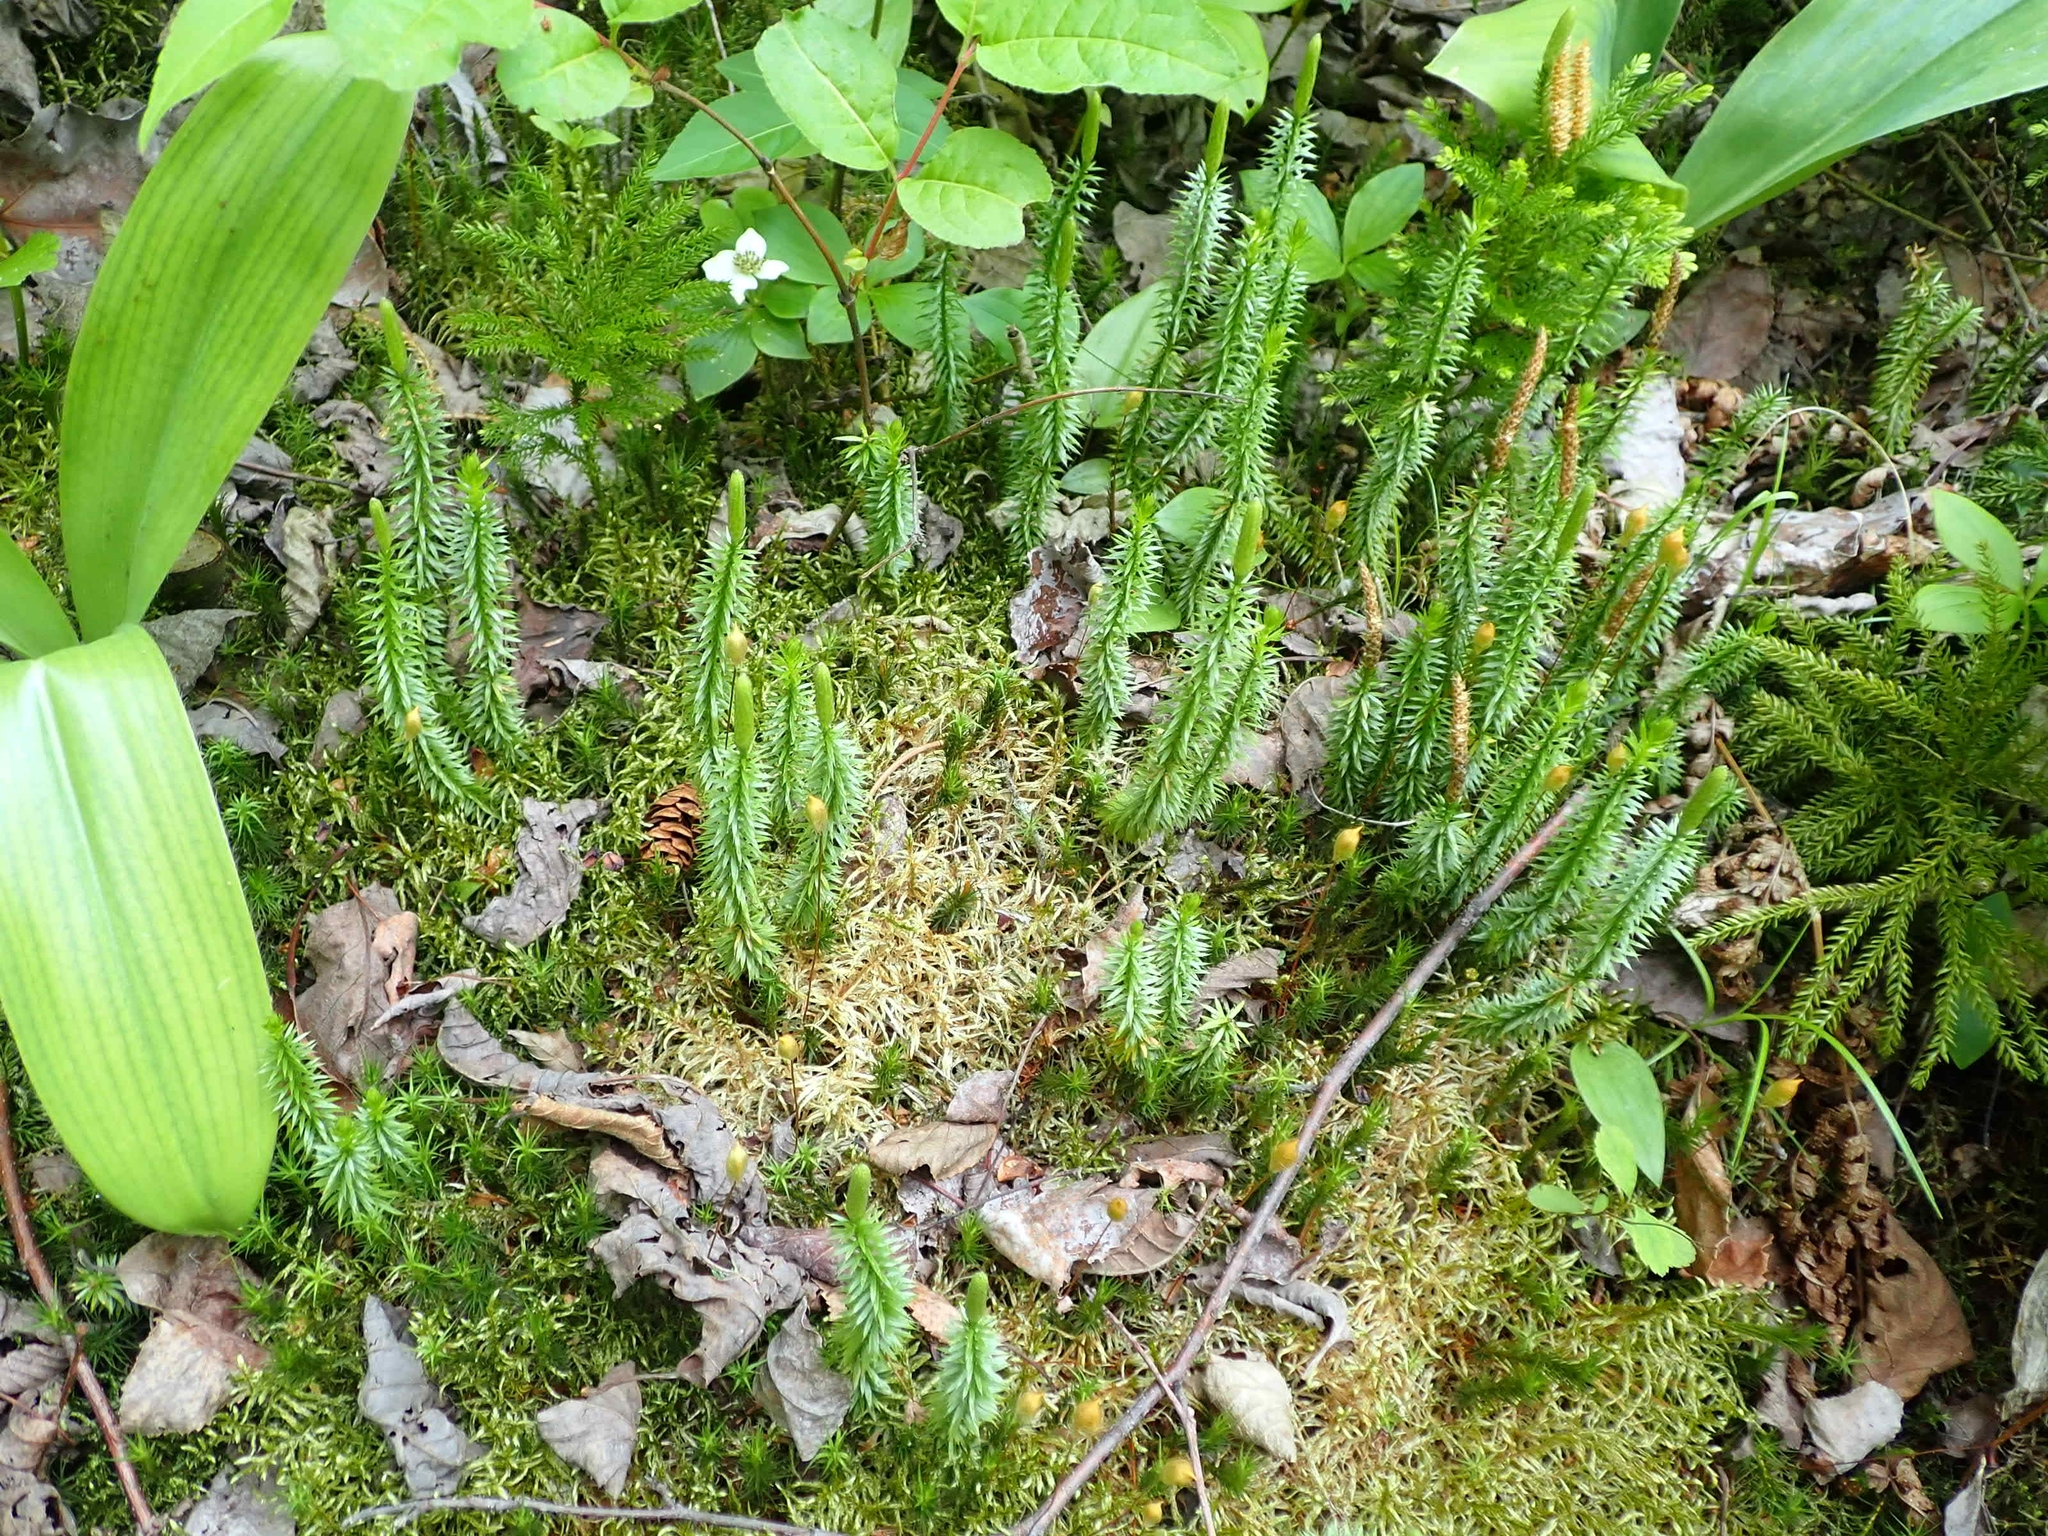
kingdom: Plantae
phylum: Tracheophyta
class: Lycopodiopsida
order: Lycopodiales
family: Lycopodiaceae
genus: Spinulum
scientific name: Spinulum annotinum
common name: Interrupted club-moss
